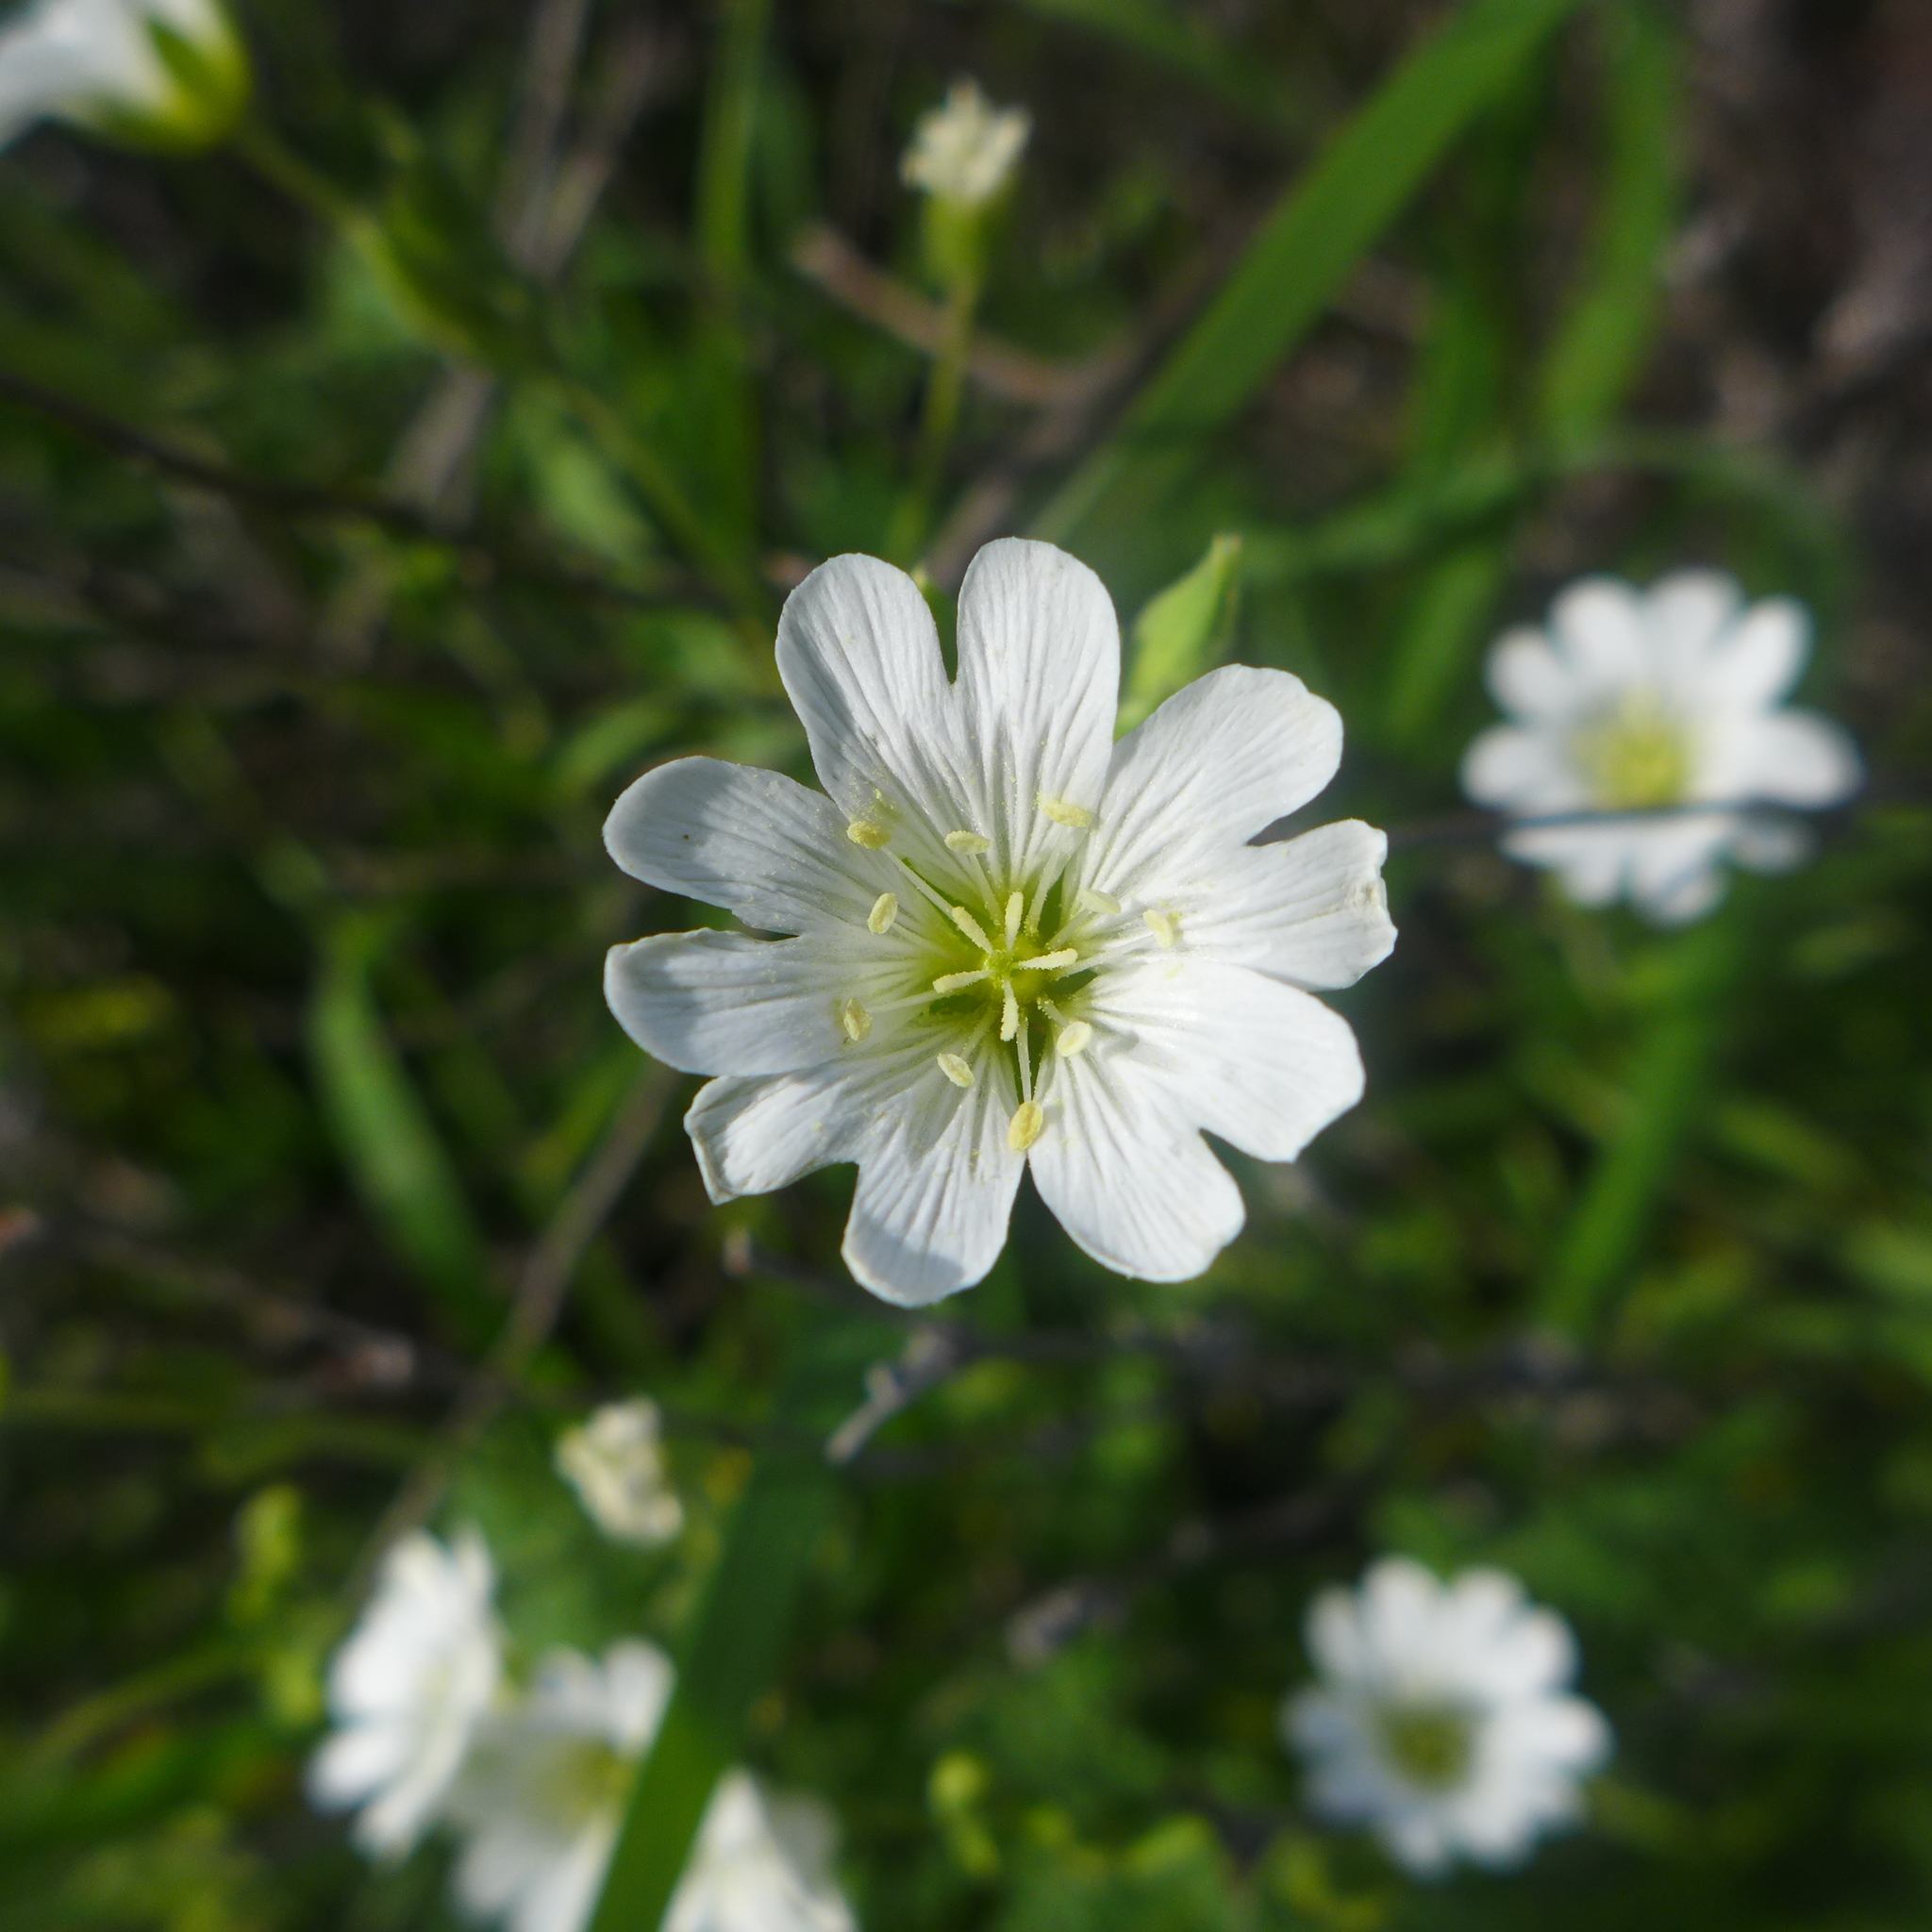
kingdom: Plantae
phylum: Tracheophyta
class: Magnoliopsida
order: Caryophyllales
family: Caryophyllaceae
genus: Cerastium
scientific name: Cerastium arvense
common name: Field mouse-ear
